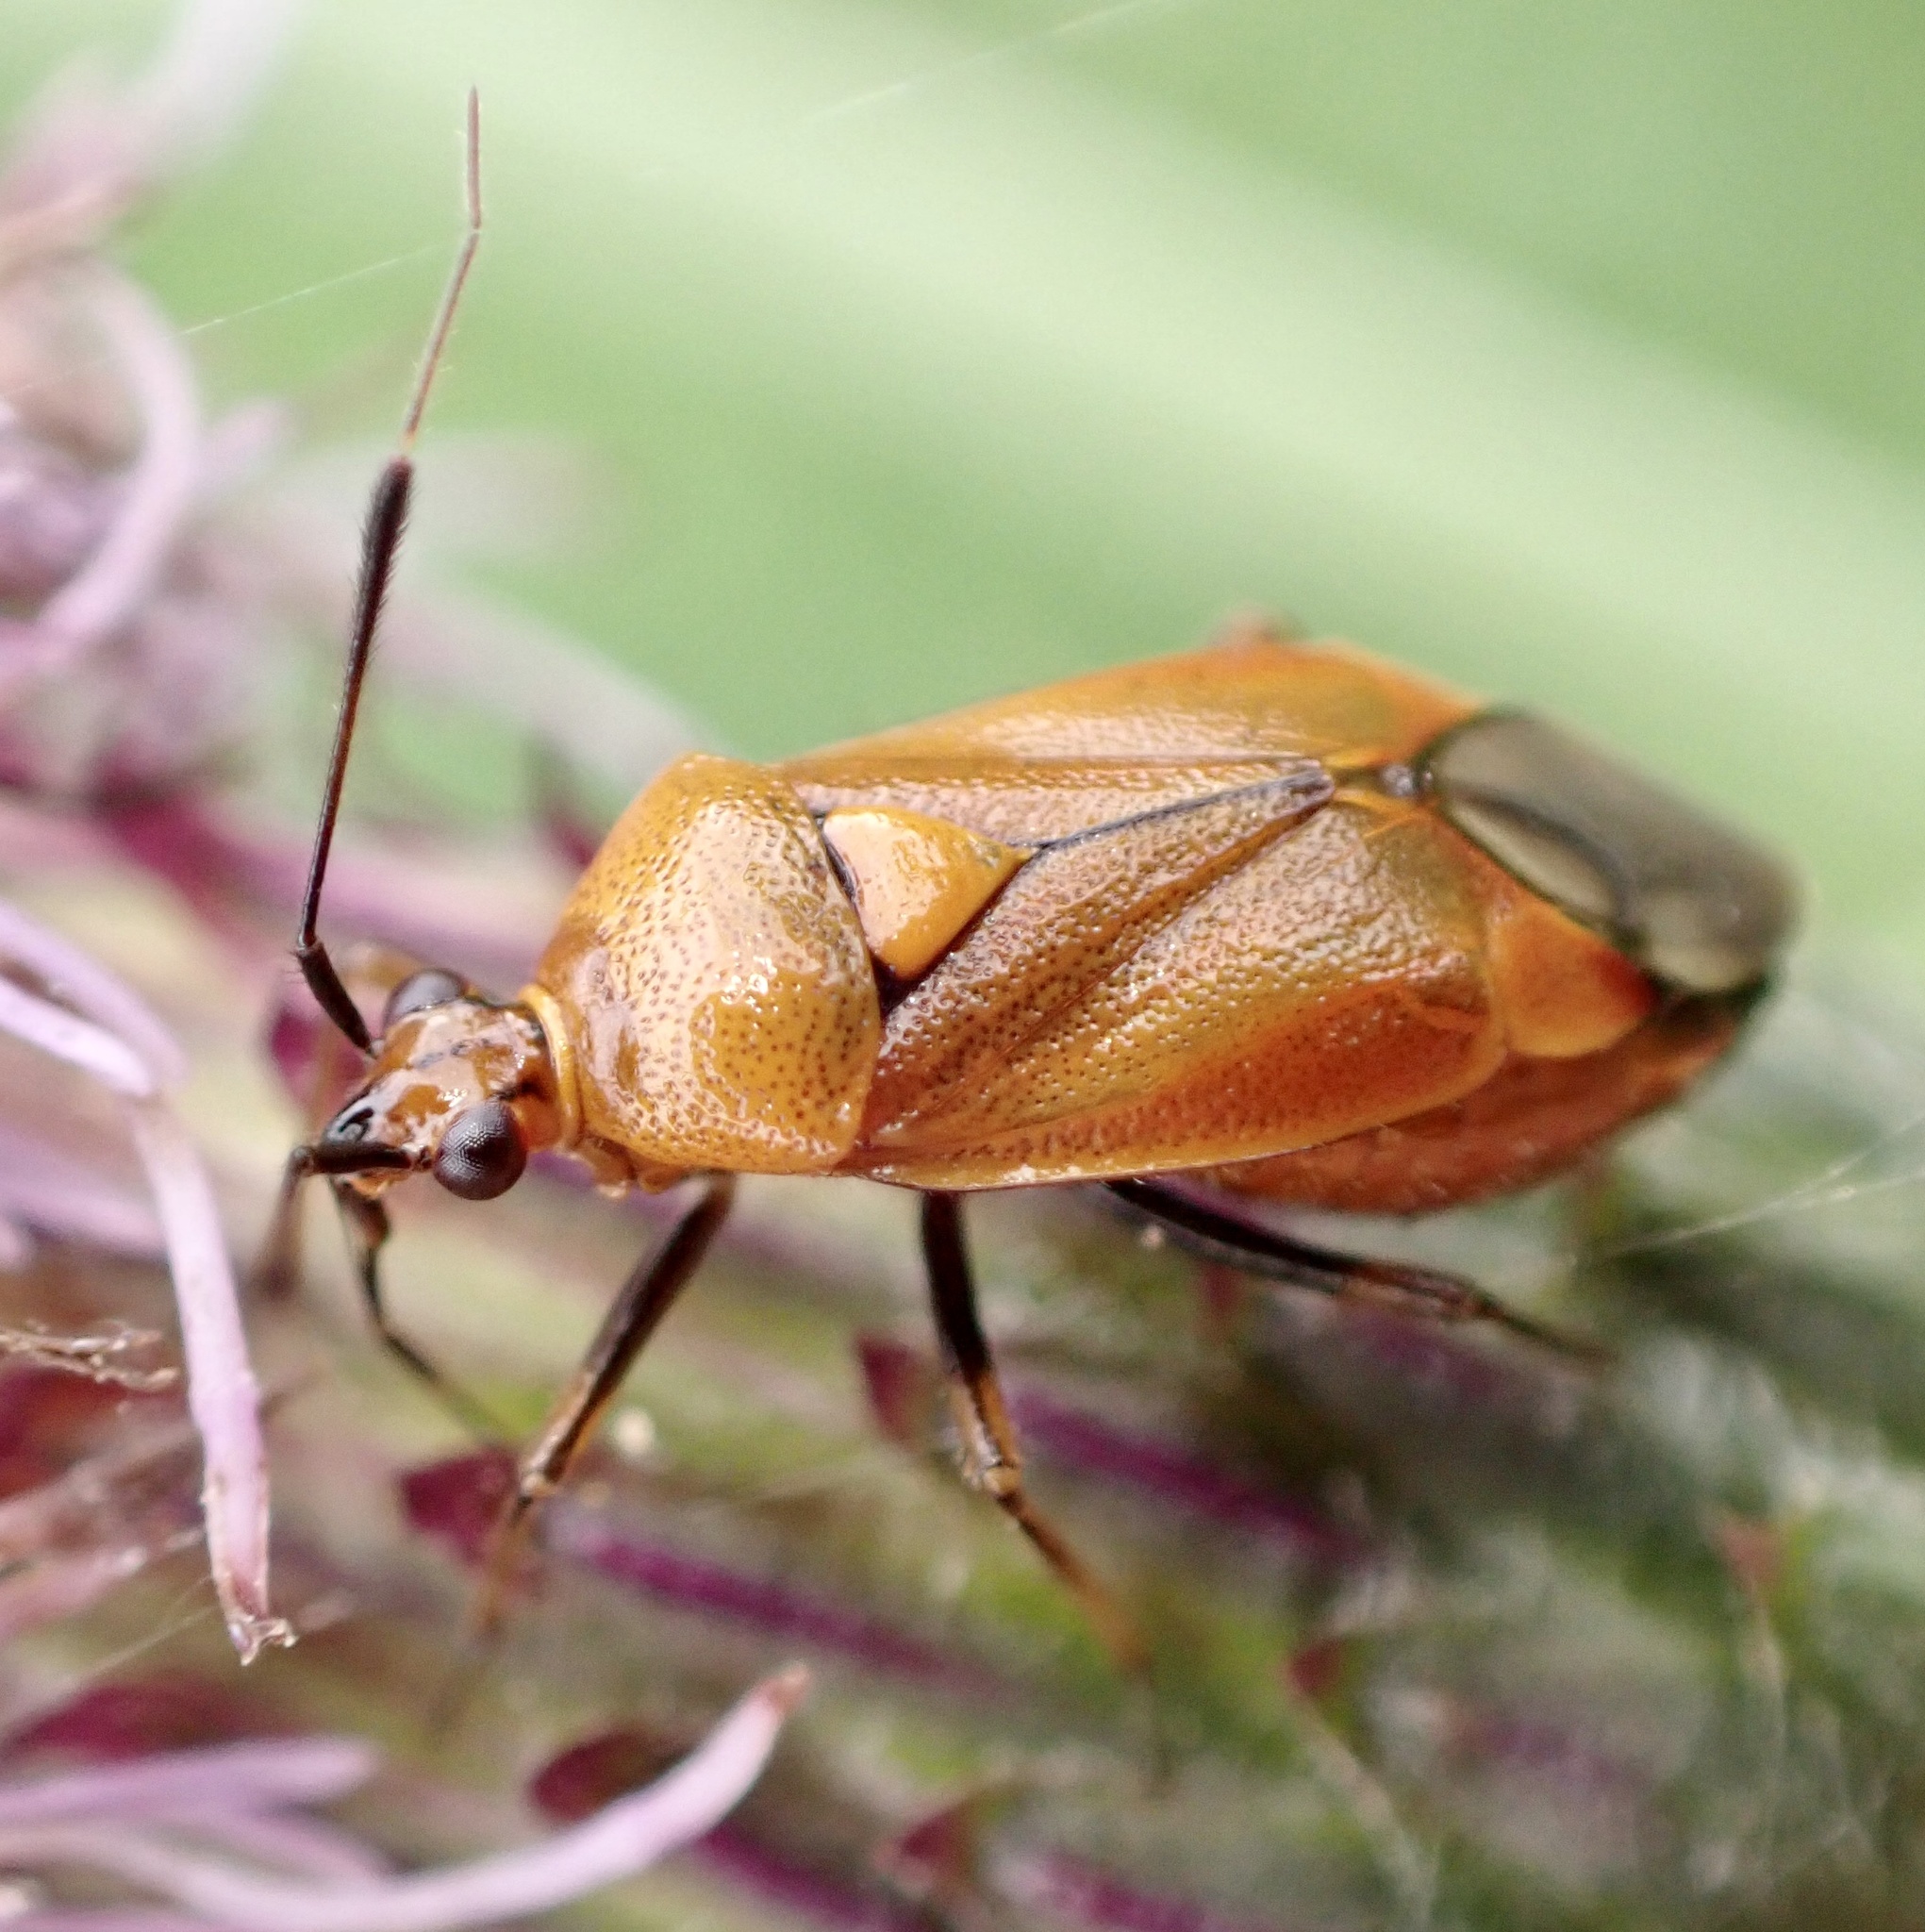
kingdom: Animalia
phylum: Arthropoda
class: Insecta
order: Hemiptera
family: Miridae
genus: Deraeocoris
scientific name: Deraeocoris ruber
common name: Plant bug
